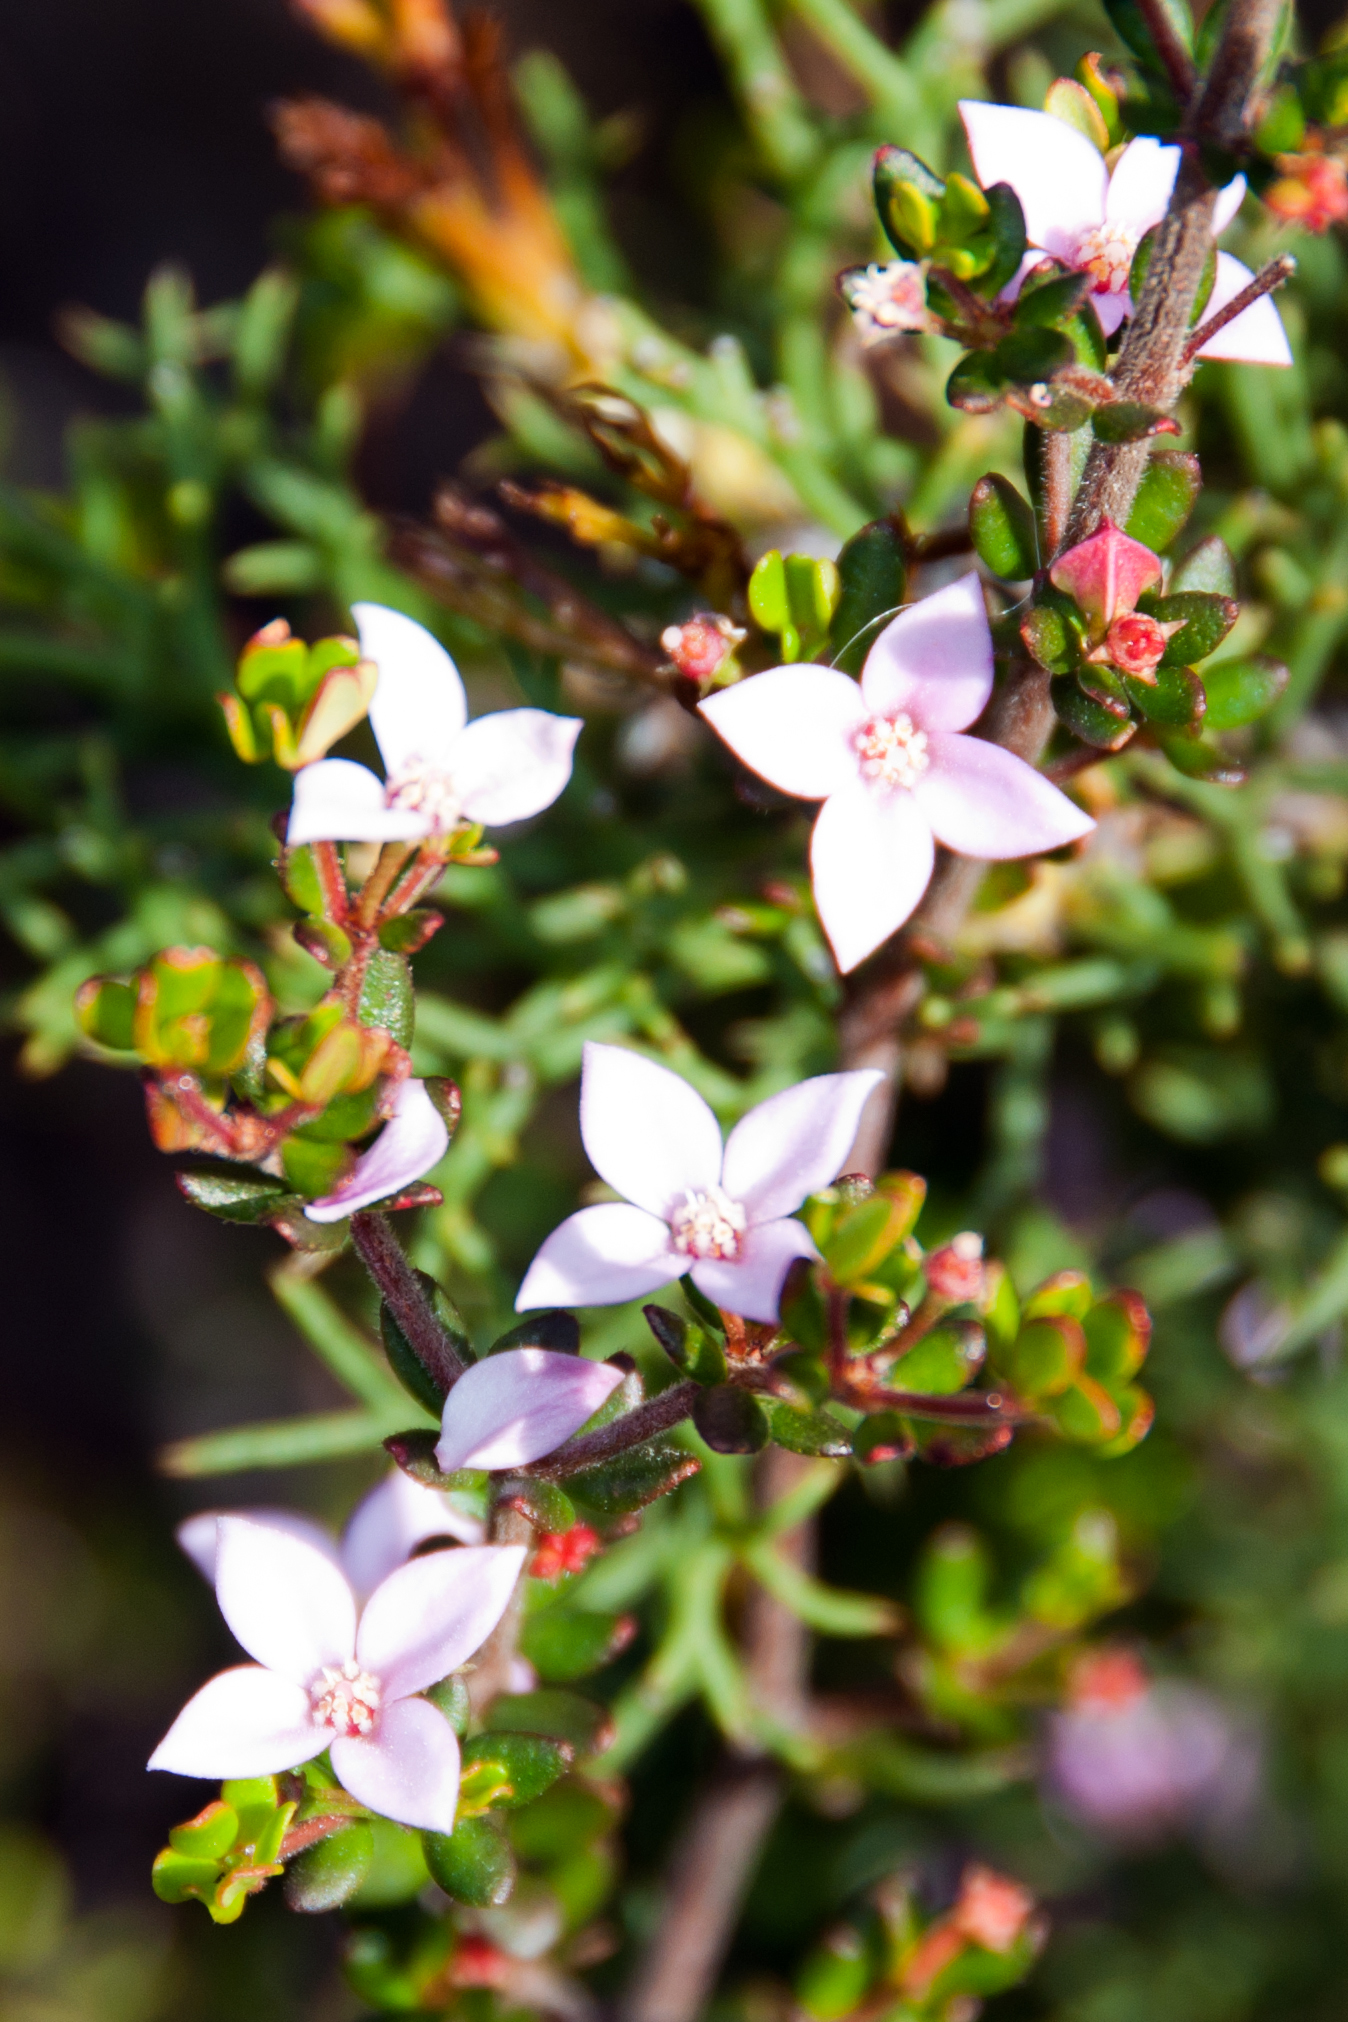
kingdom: Plantae
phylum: Tracheophyta
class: Magnoliopsida
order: Sapindales
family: Rutaceae
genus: Boronia
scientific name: Boronia edwardsii
